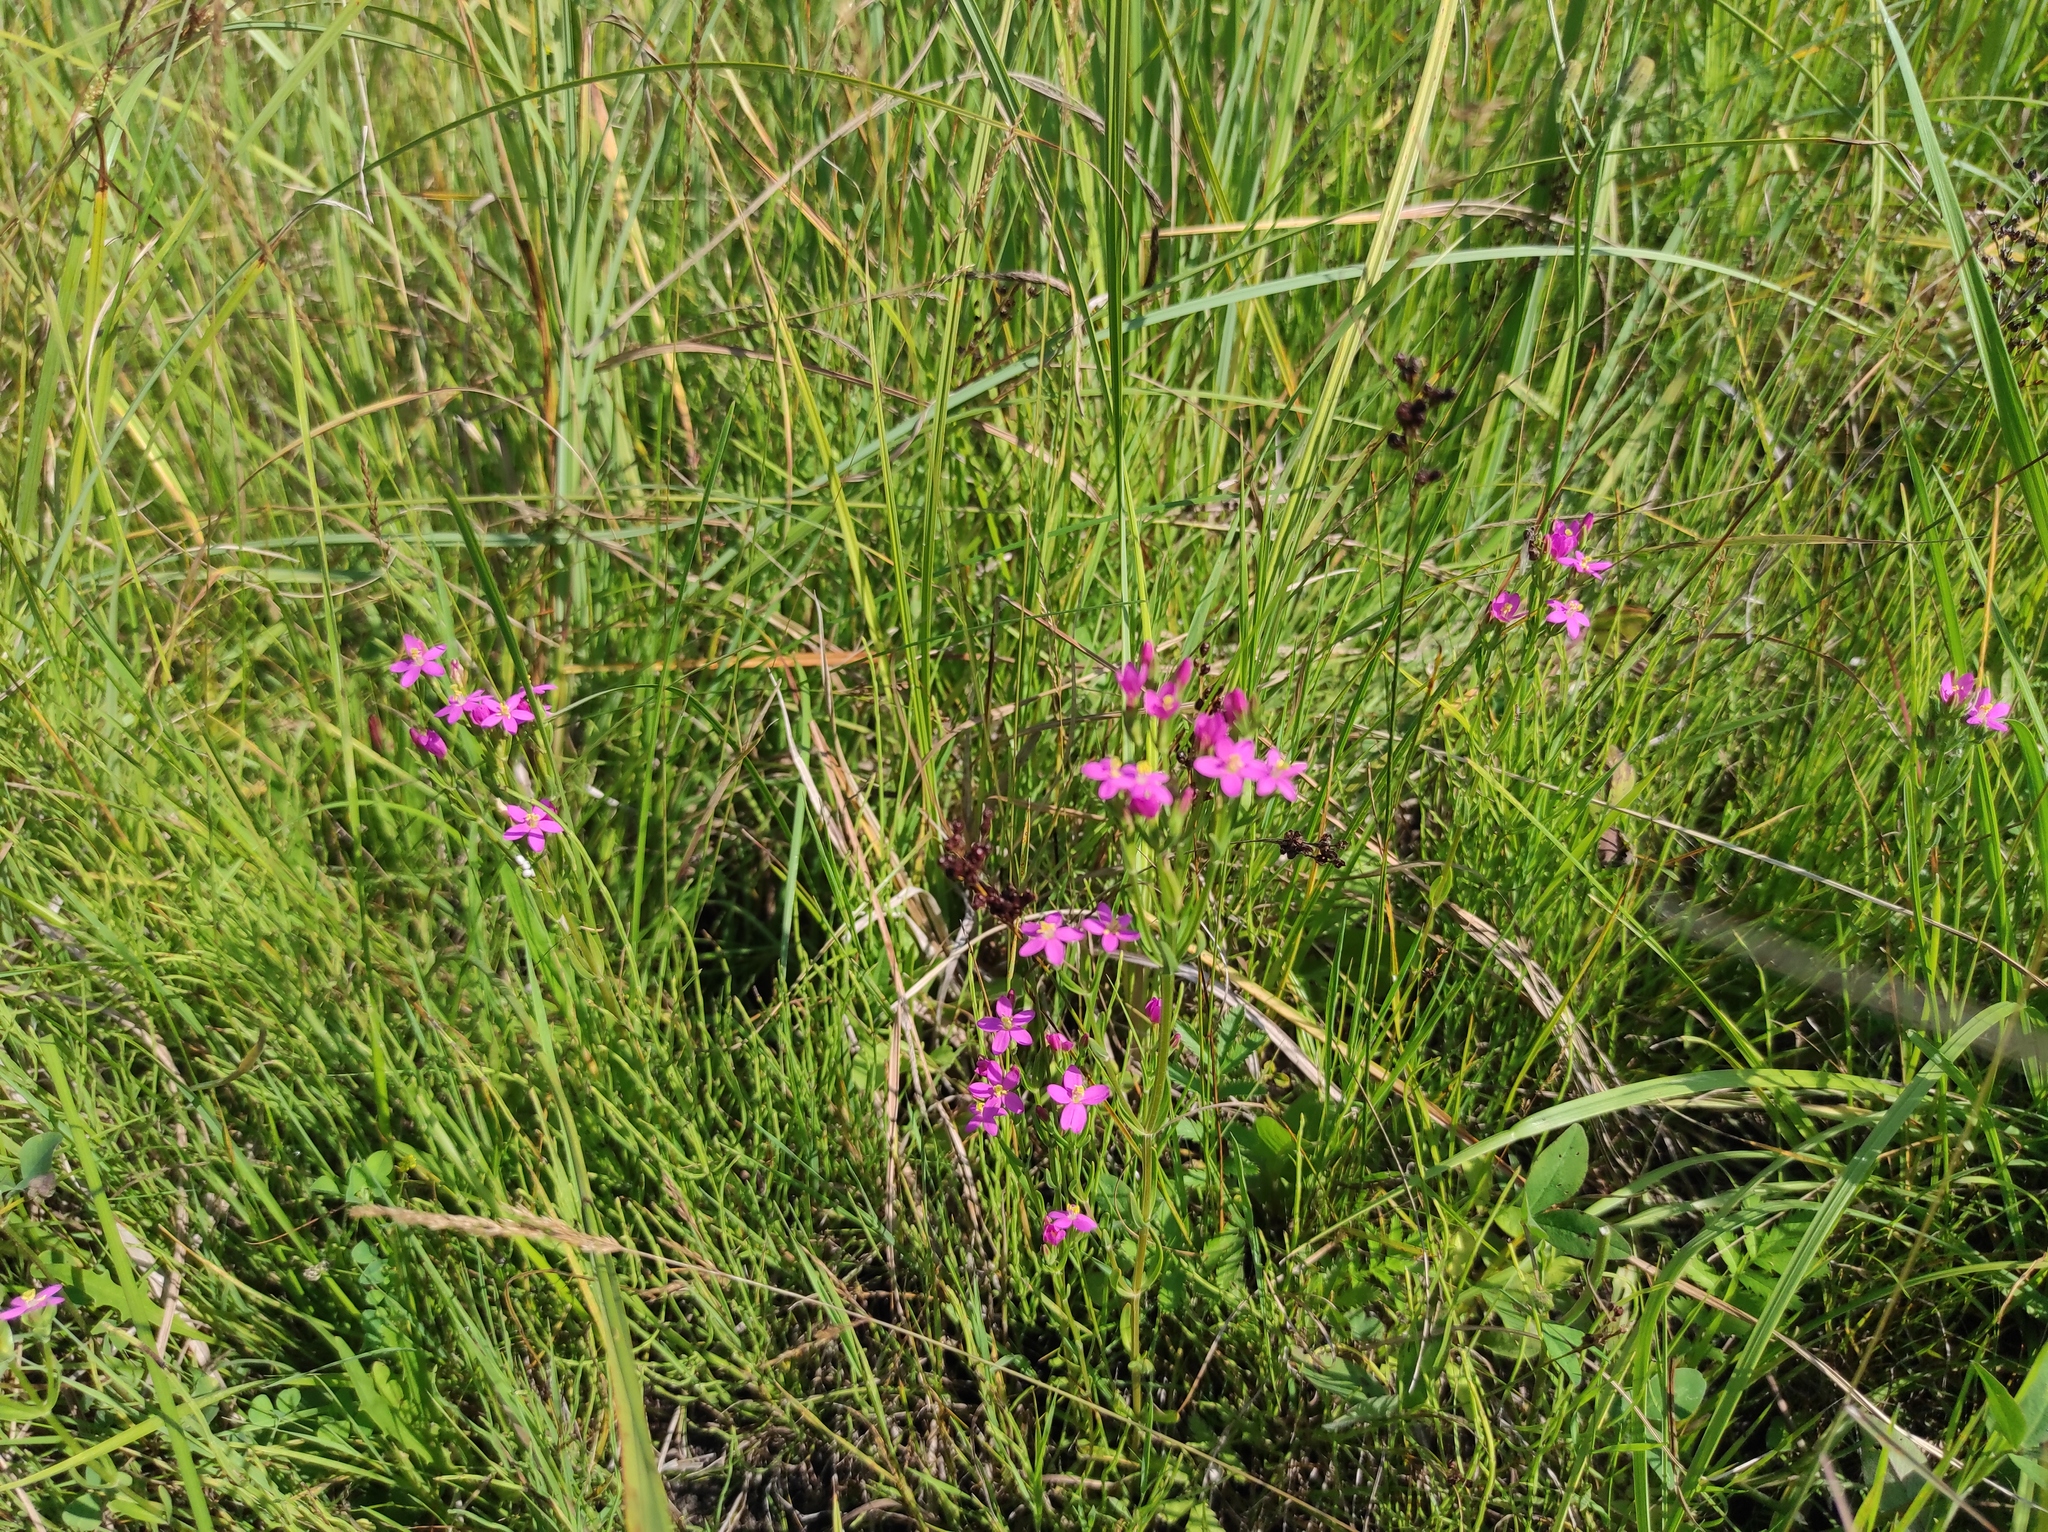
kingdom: Plantae
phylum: Tracheophyta
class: Magnoliopsida
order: Gentianales
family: Gentianaceae
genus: Centaurium
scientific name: Centaurium pulchellum
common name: Lesser centaury
